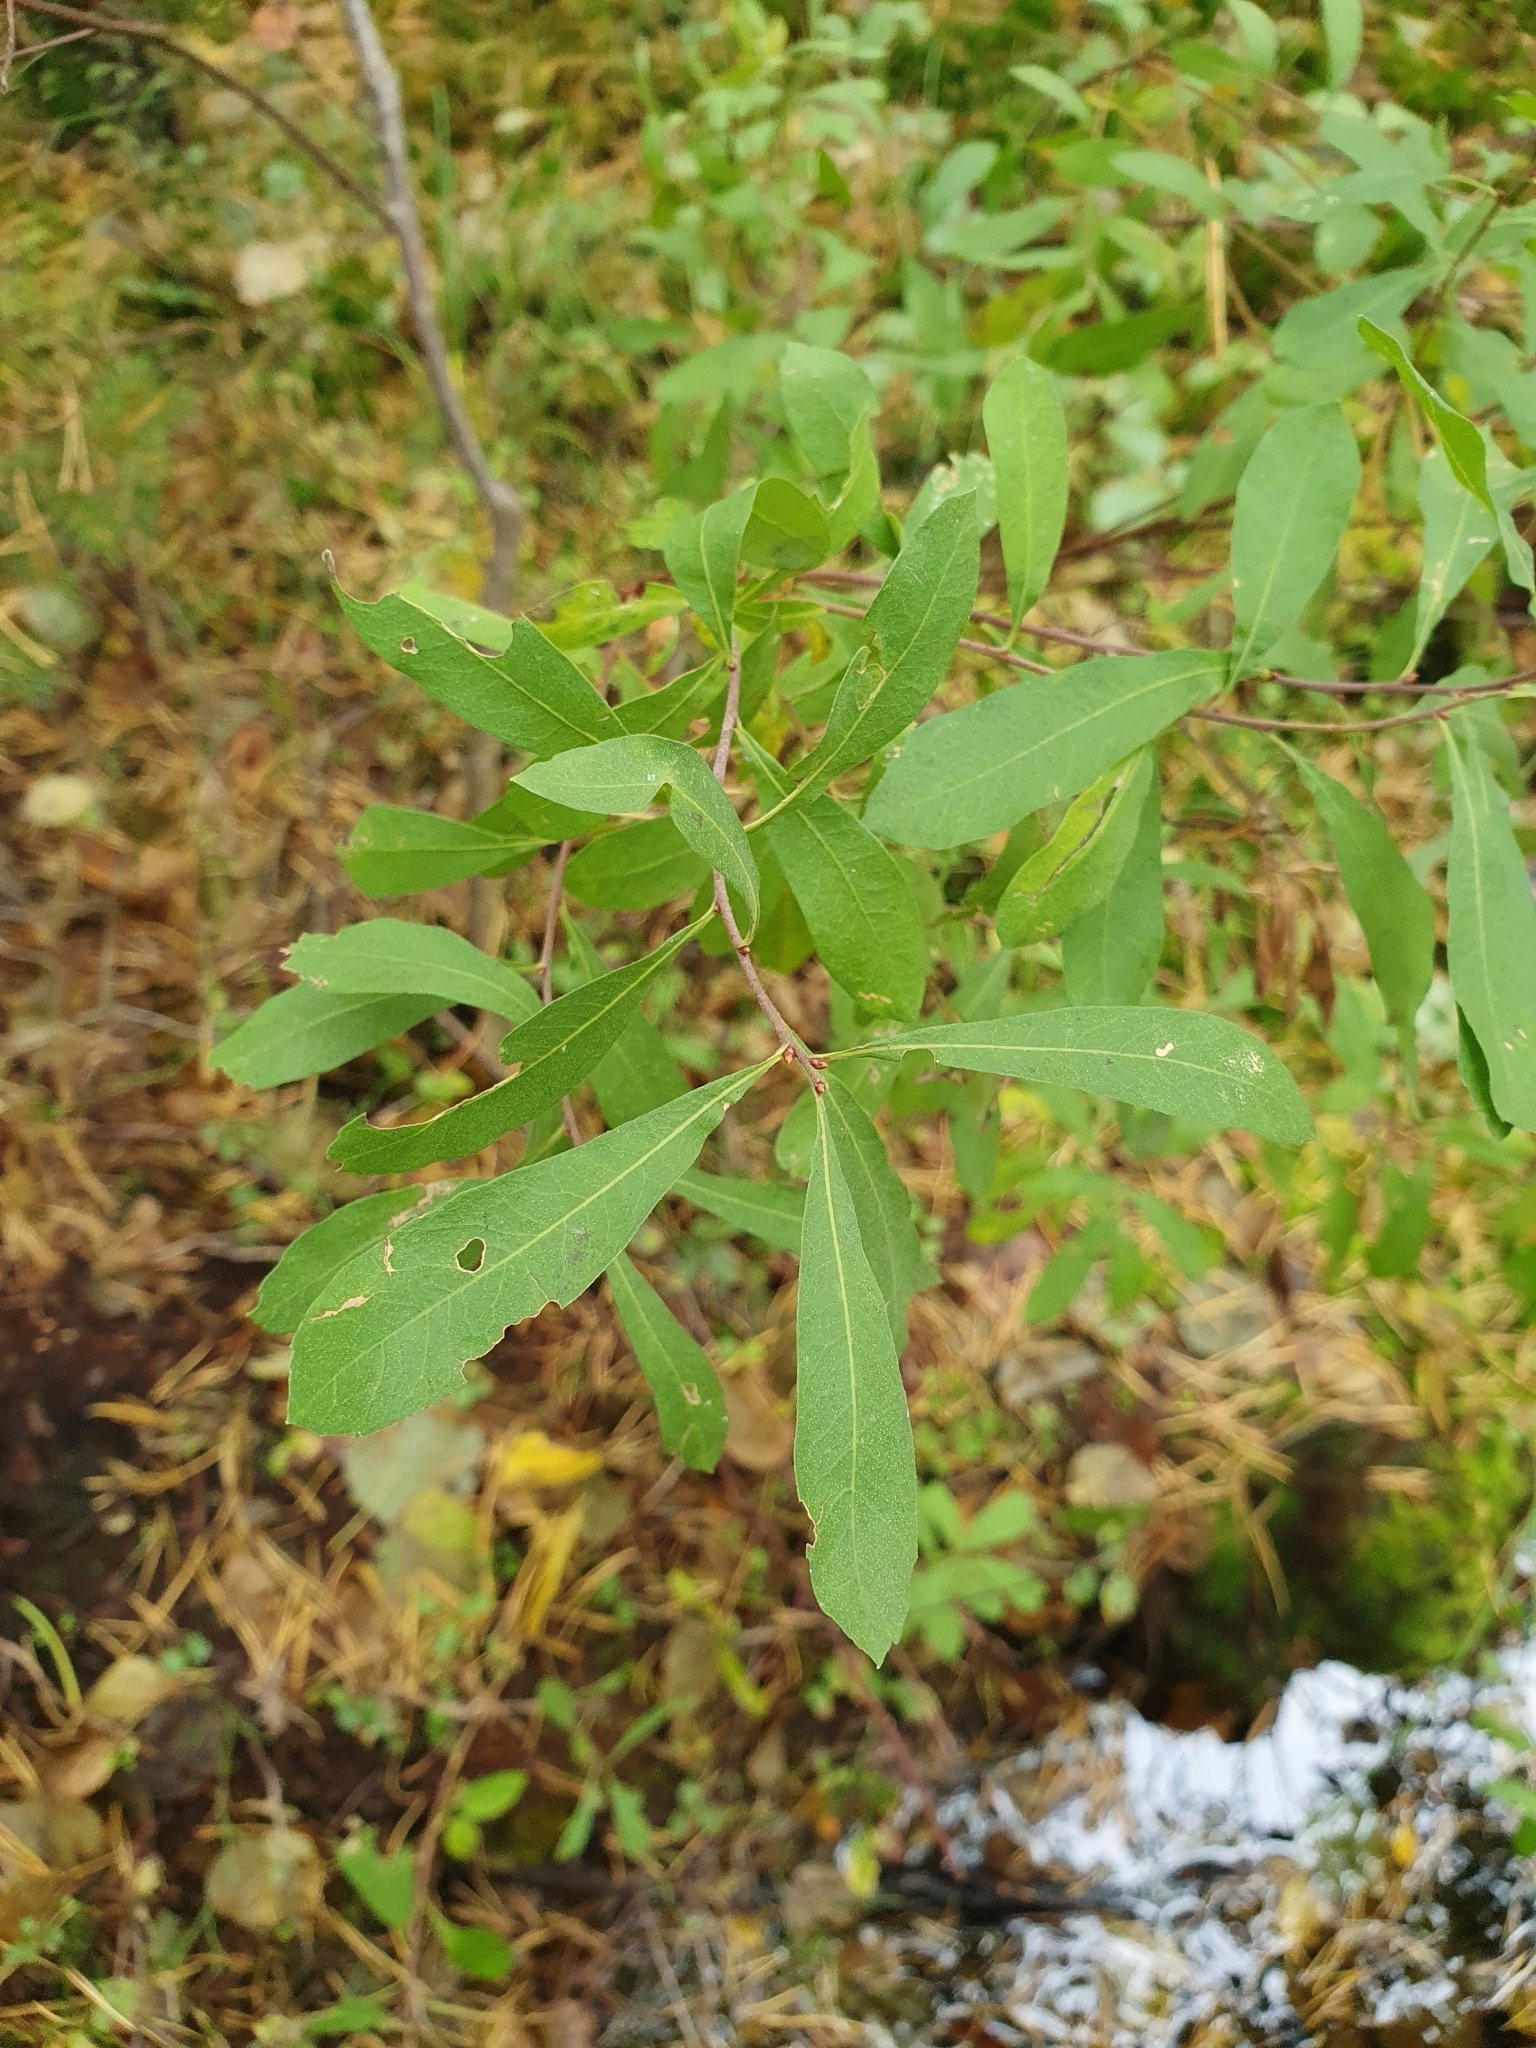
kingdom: Plantae
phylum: Tracheophyta
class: Magnoliopsida
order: Fagales
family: Myricaceae
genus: Myrica
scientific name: Myrica gale
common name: Sweet gale
